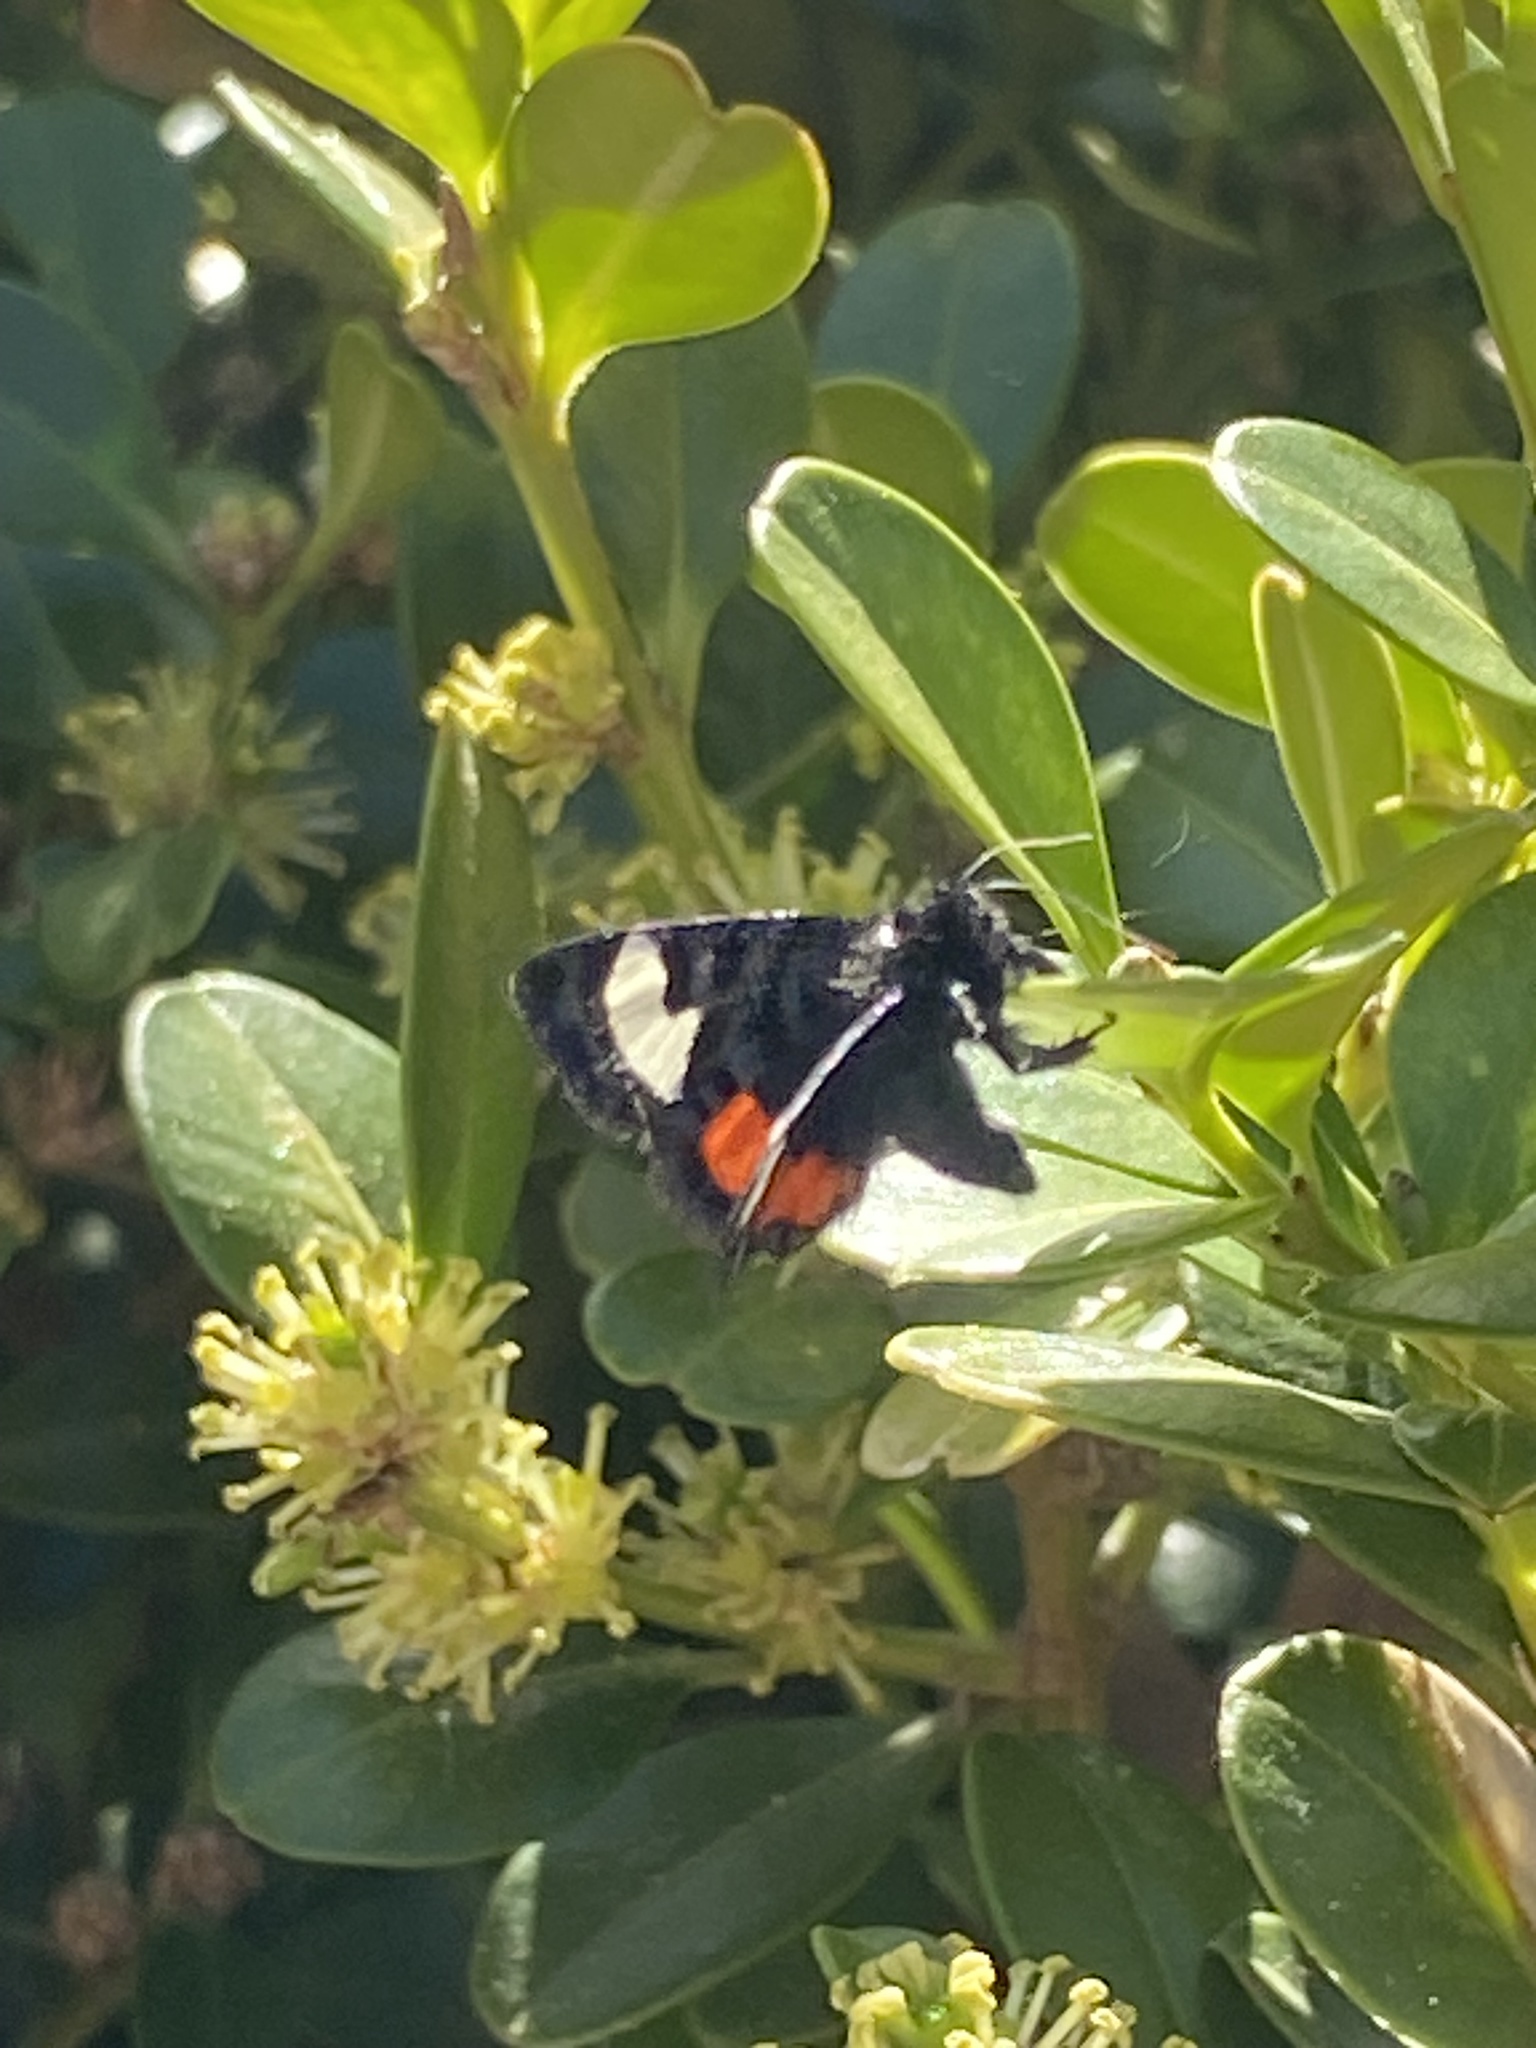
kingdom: Animalia
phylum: Arthropoda
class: Insecta
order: Lepidoptera
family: Noctuidae
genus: Psychomorpha
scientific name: Psychomorpha epimenis
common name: Grapevine epimenis moth
